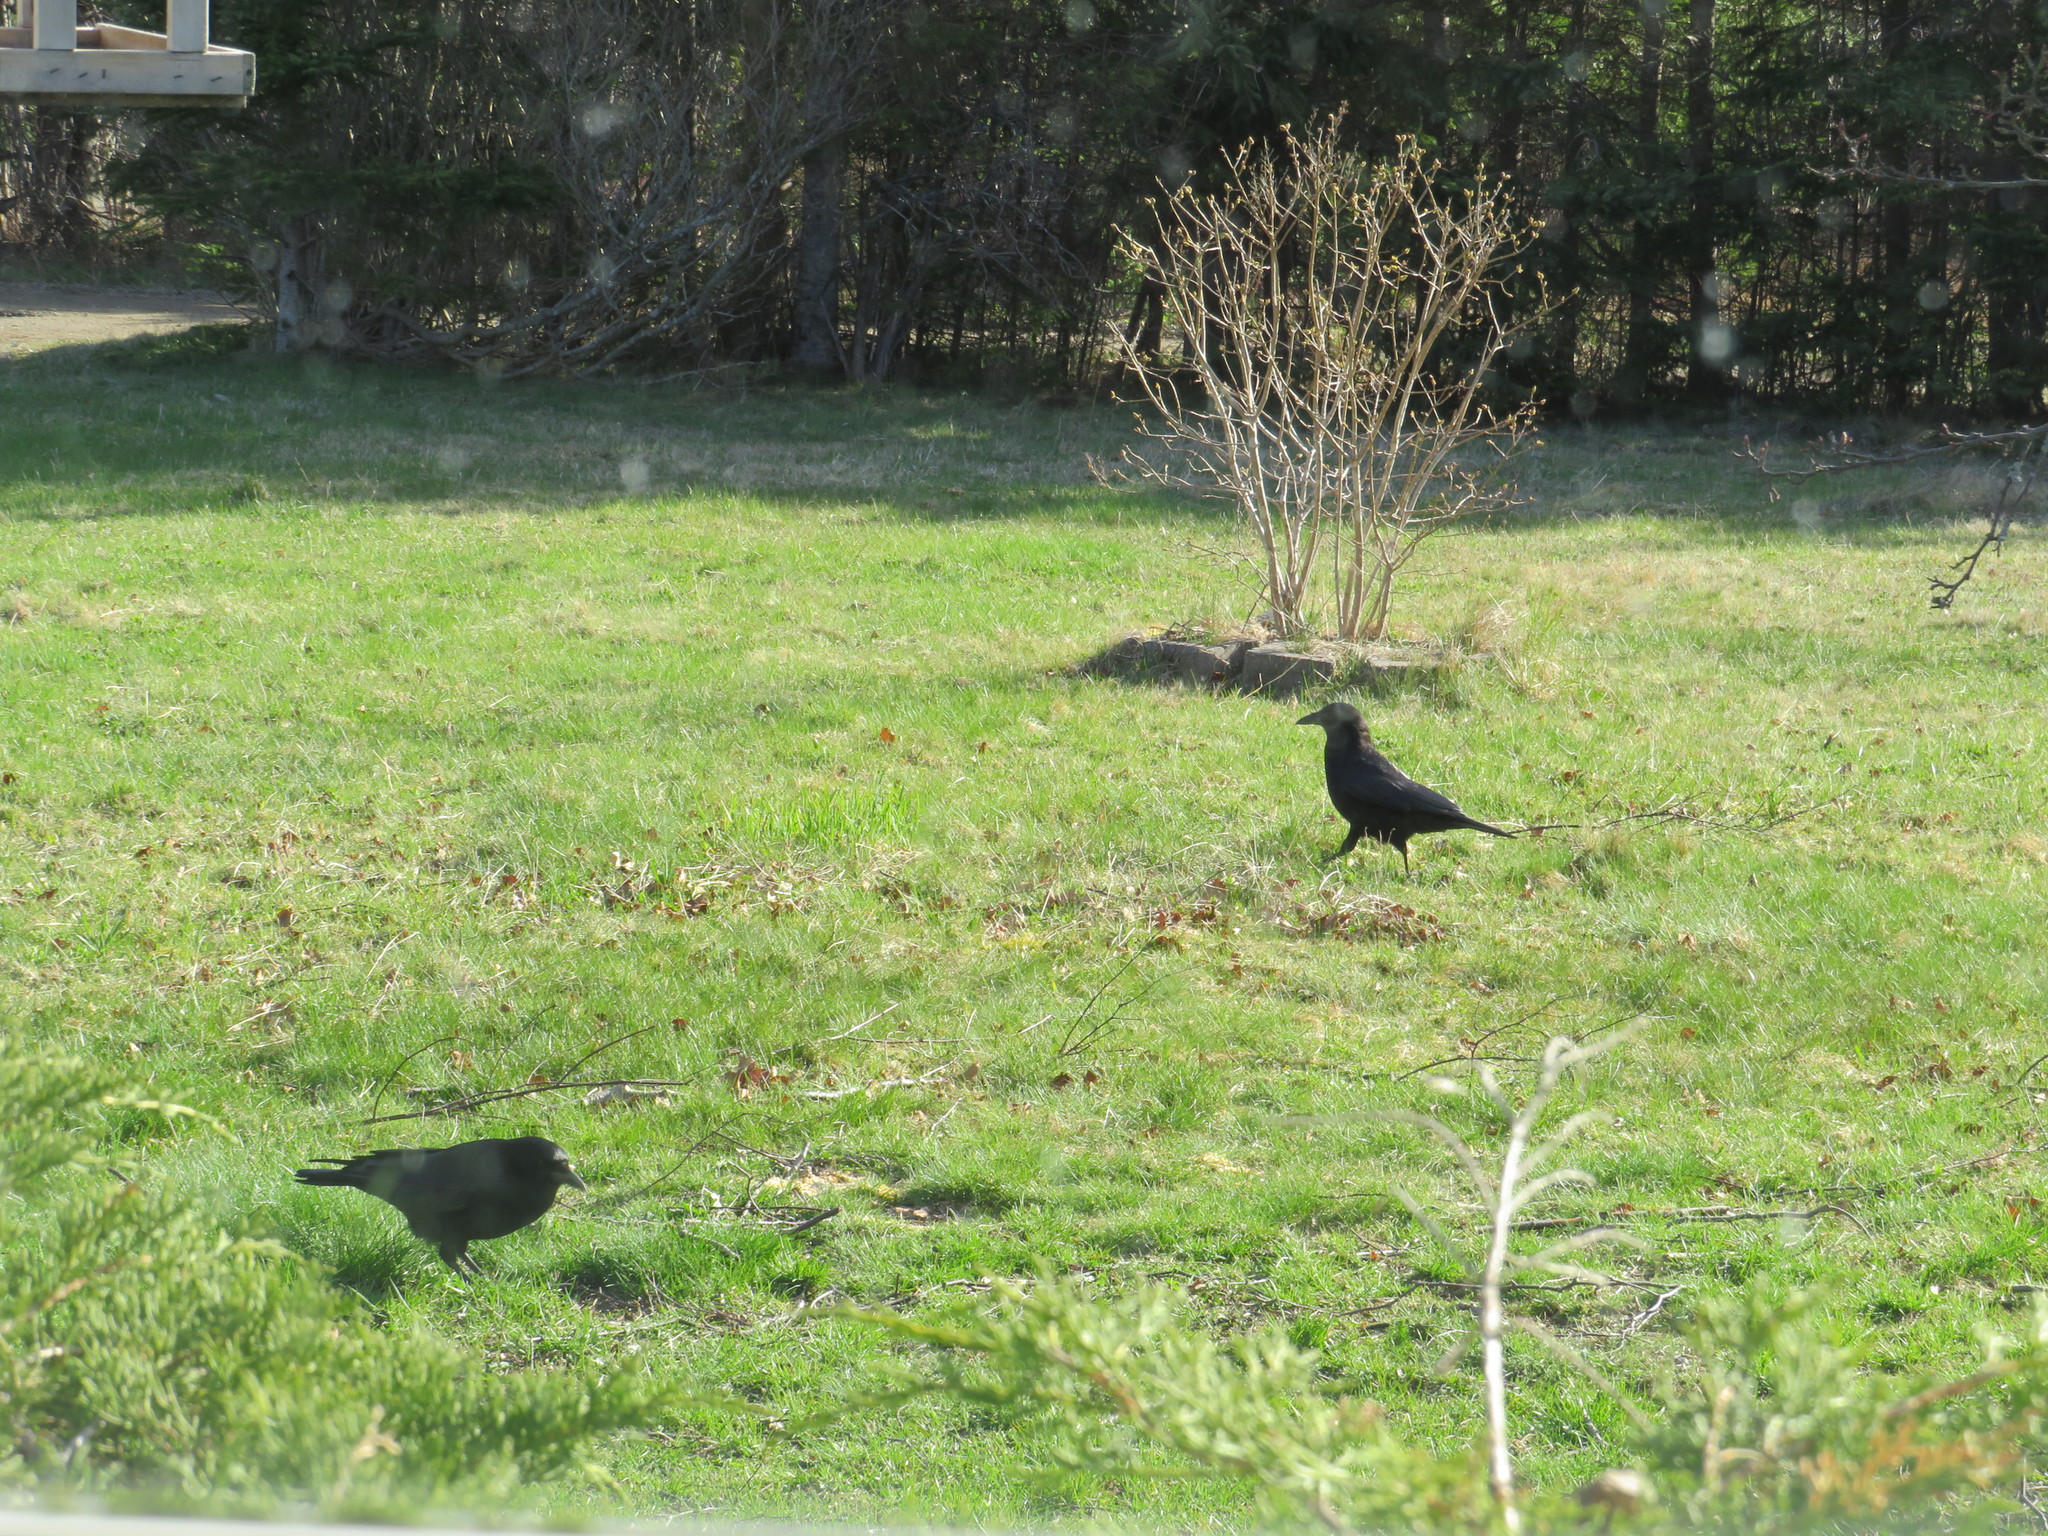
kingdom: Animalia
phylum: Chordata
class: Aves
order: Passeriformes
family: Corvidae
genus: Corvus
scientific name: Corvus brachyrhynchos
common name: American crow
